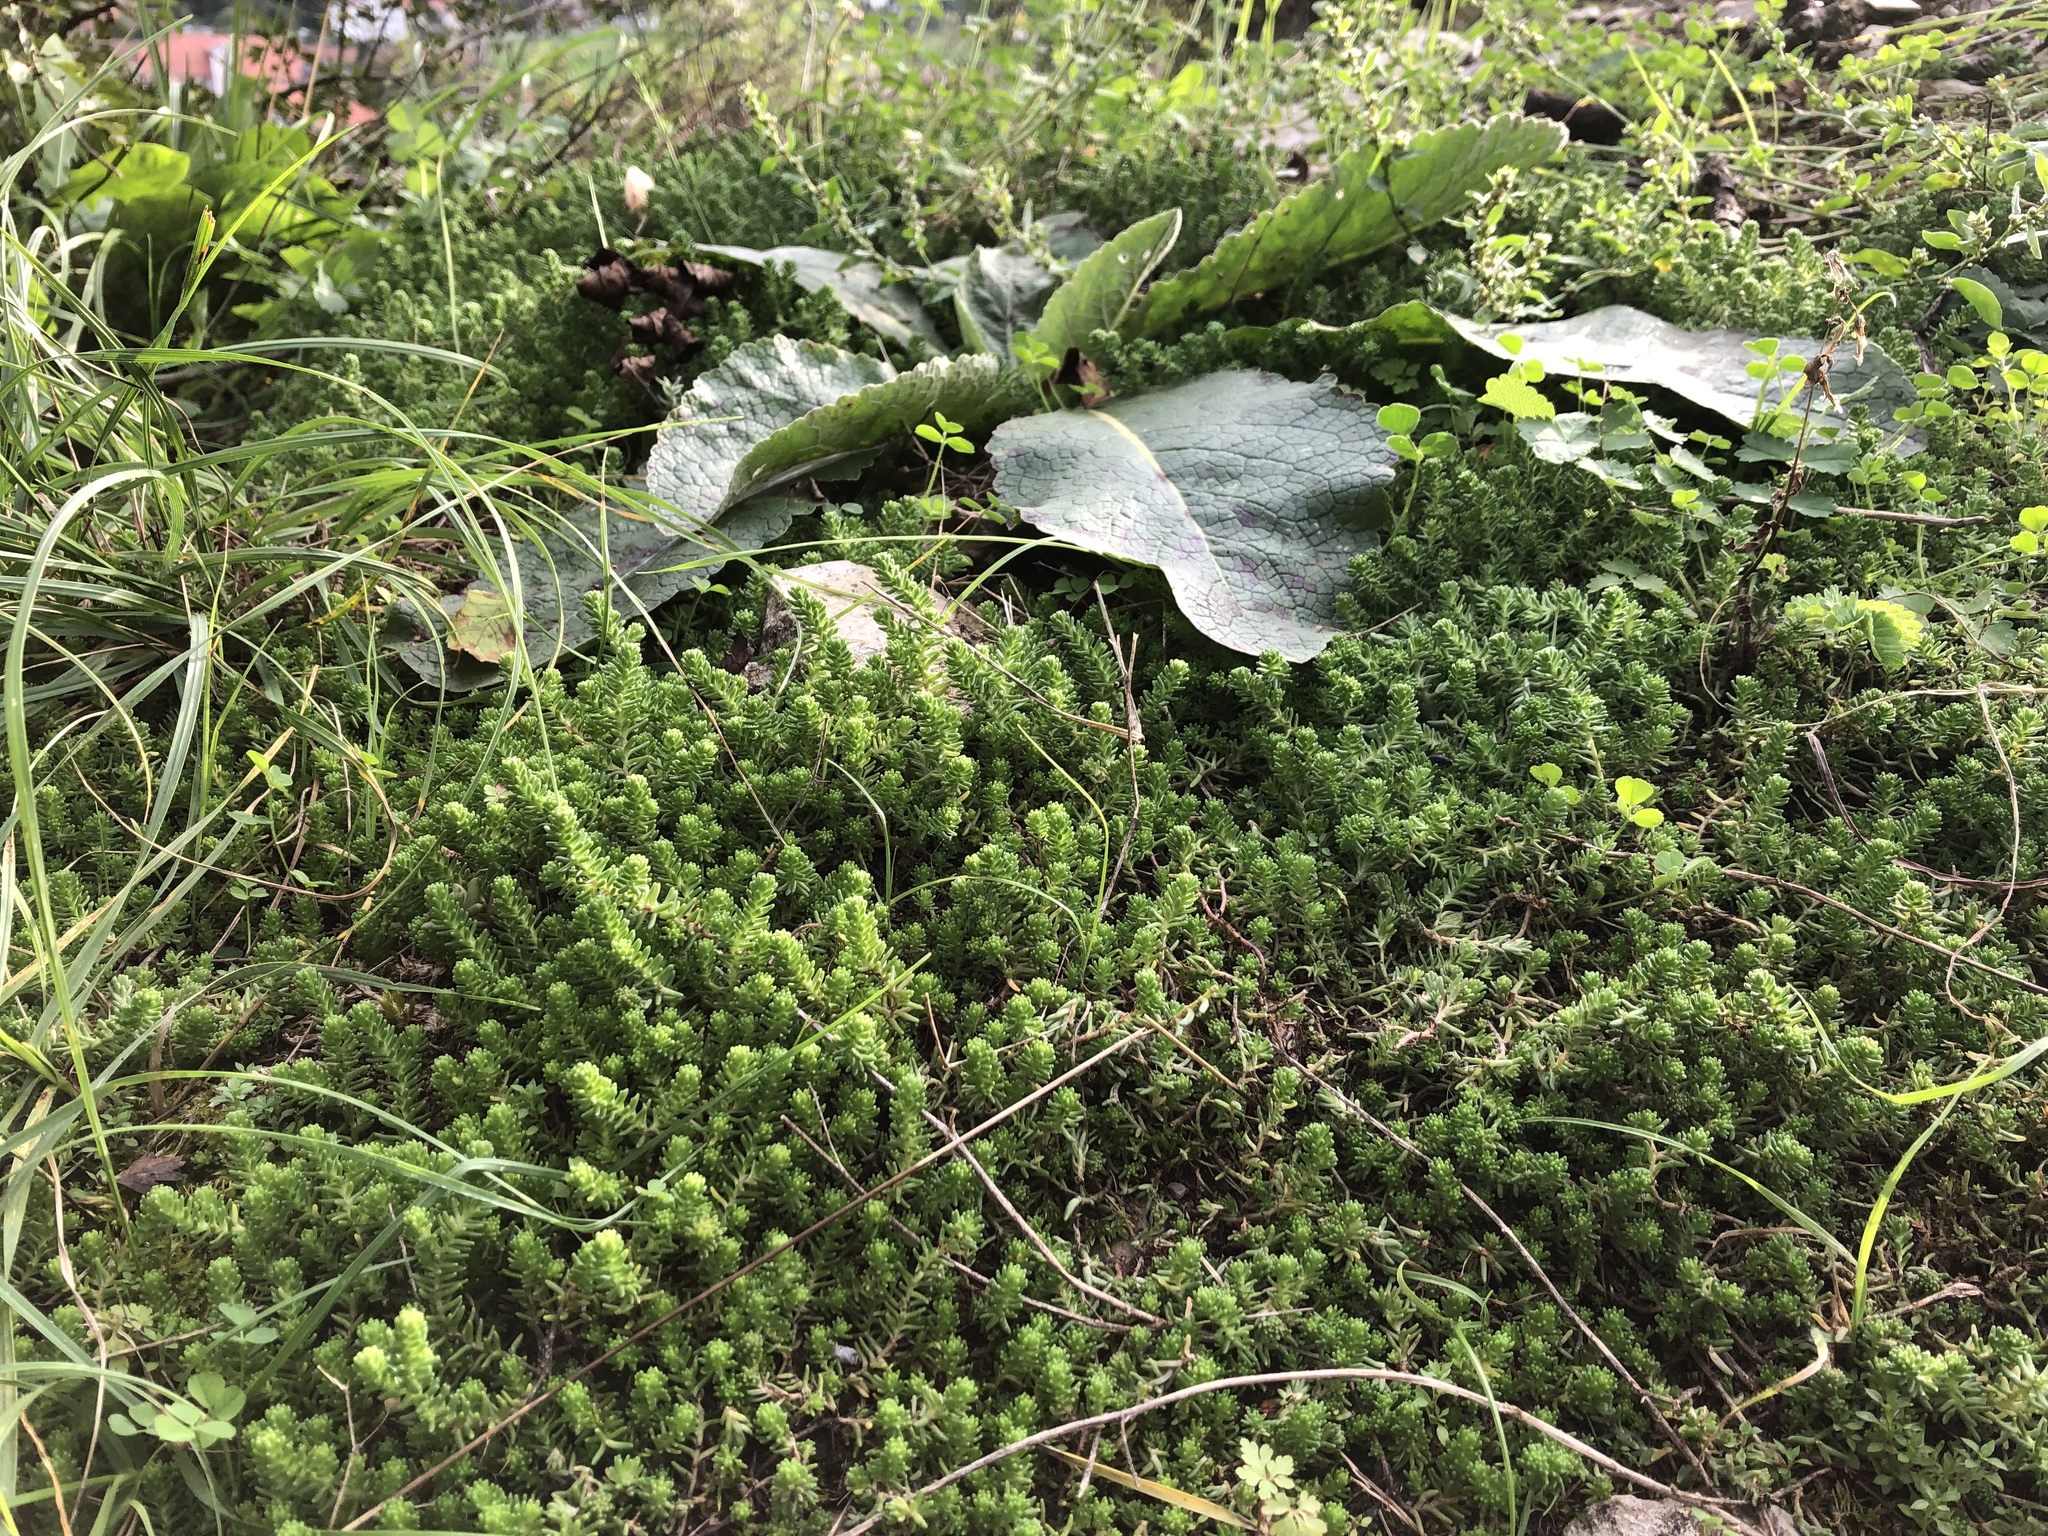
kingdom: Plantae
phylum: Tracheophyta
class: Magnoliopsida
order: Saxifragales
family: Crassulaceae
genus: Sedum
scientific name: Sedum sexangulare
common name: Tasteless stonecrop
